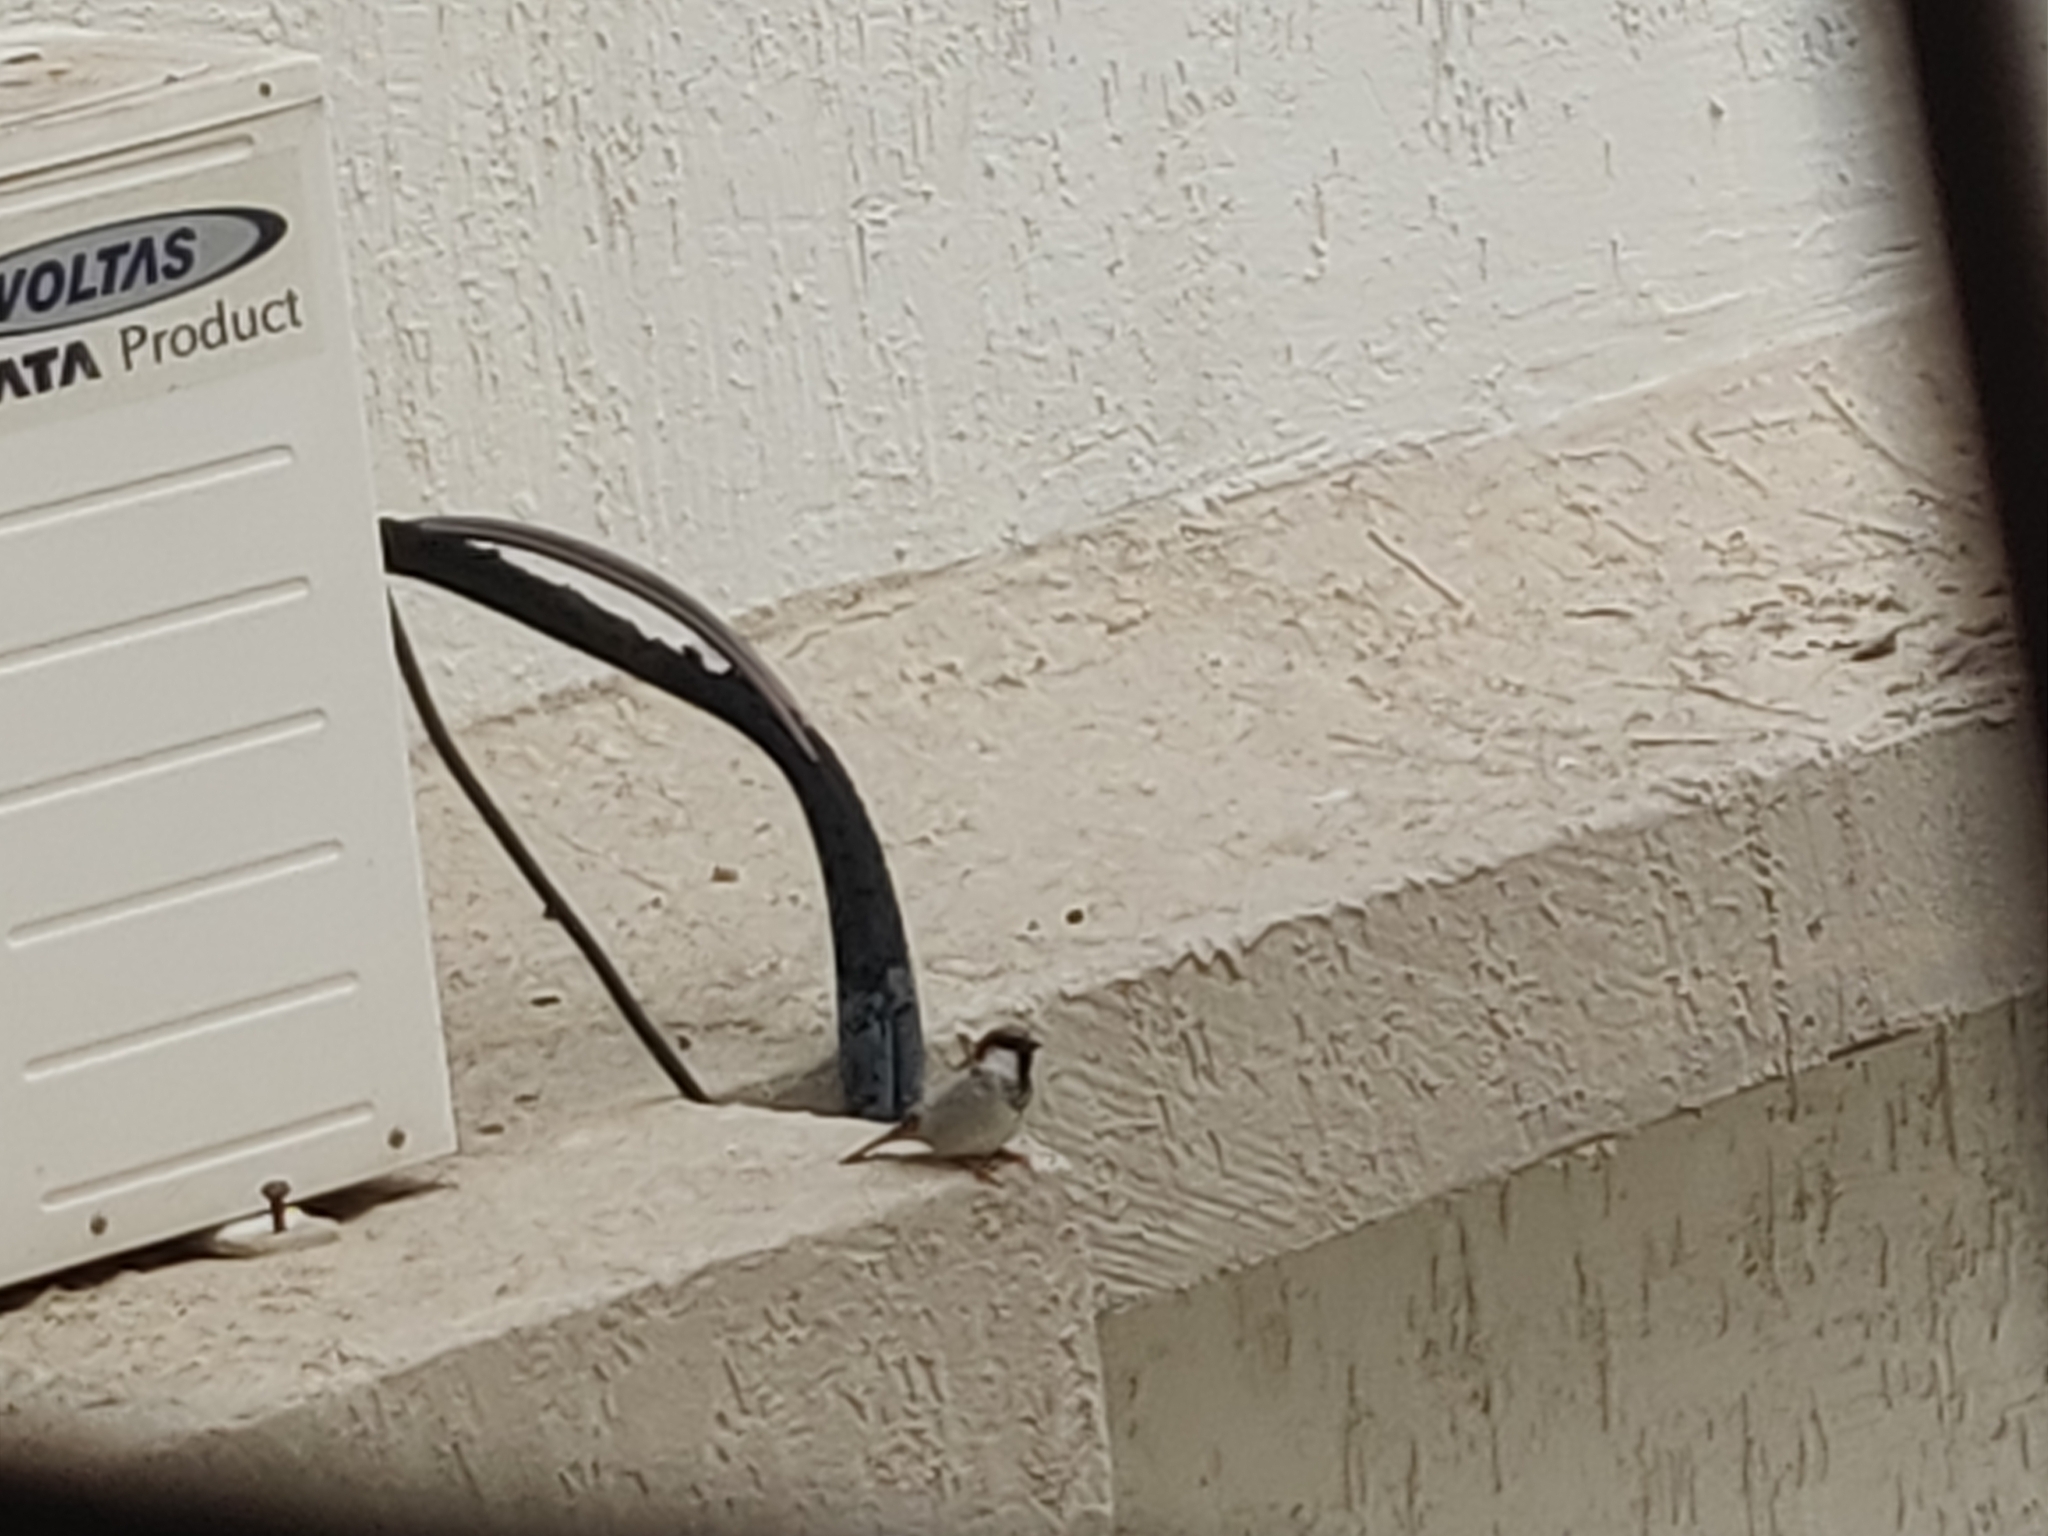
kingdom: Animalia
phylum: Chordata
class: Aves
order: Passeriformes
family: Passeridae
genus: Passer
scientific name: Passer domesticus
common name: House sparrow
